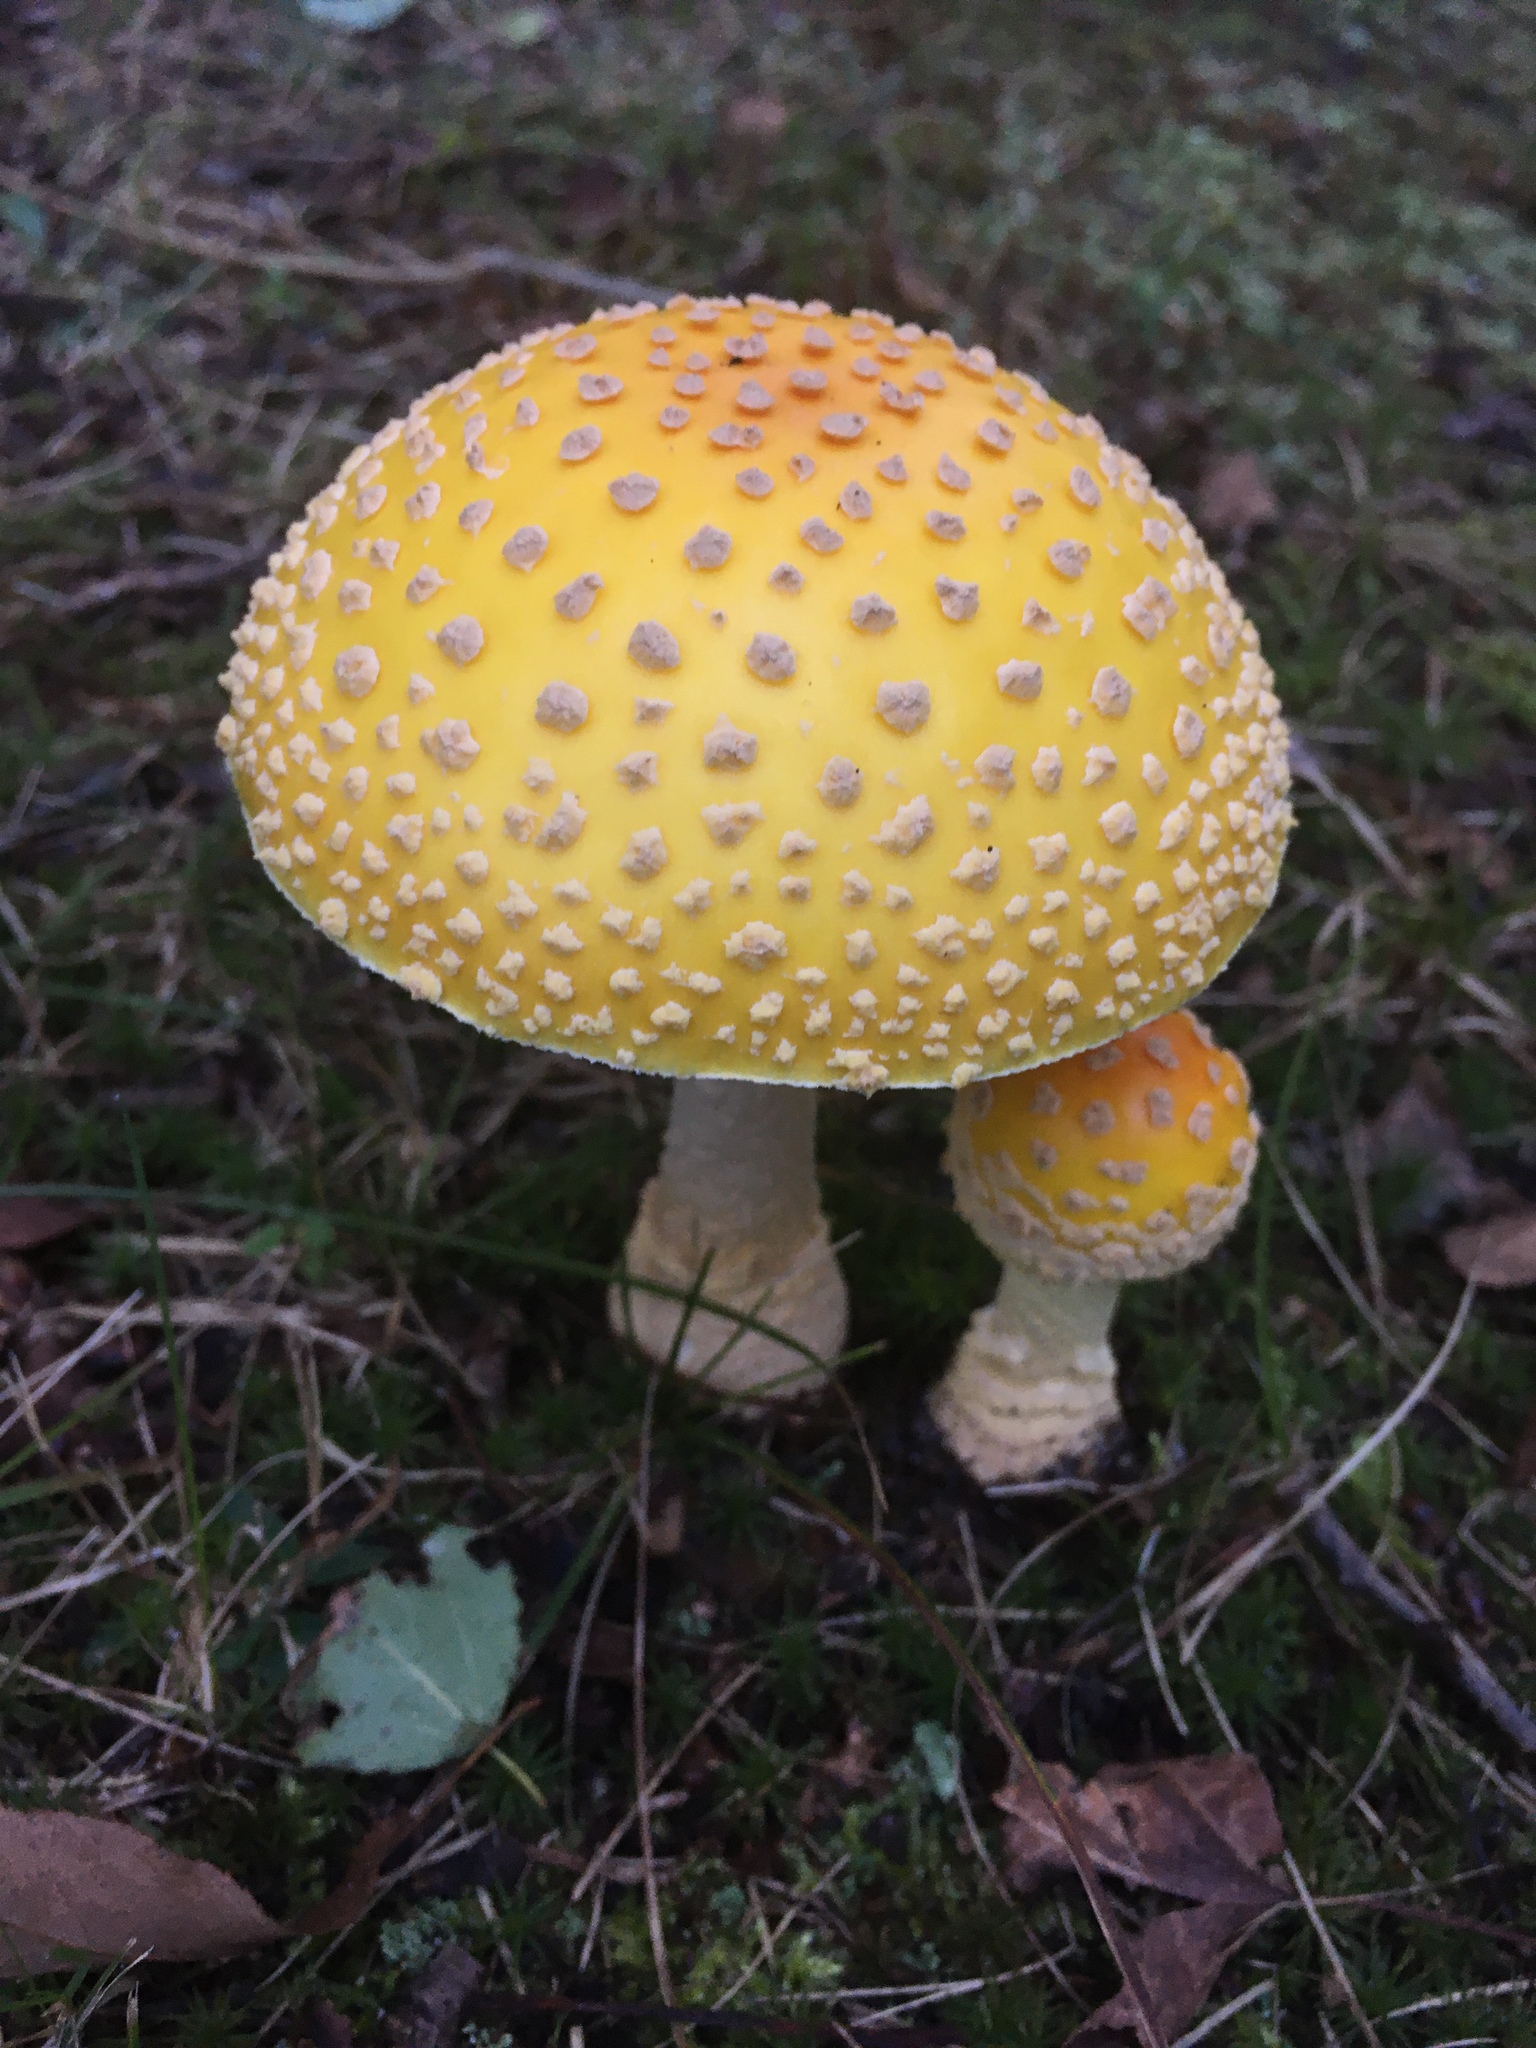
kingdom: Fungi
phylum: Basidiomycota
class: Agaricomycetes
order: Agaricales
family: Amanitaceae
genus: Amanita
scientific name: Amanita muscaria
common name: Fly agaric
